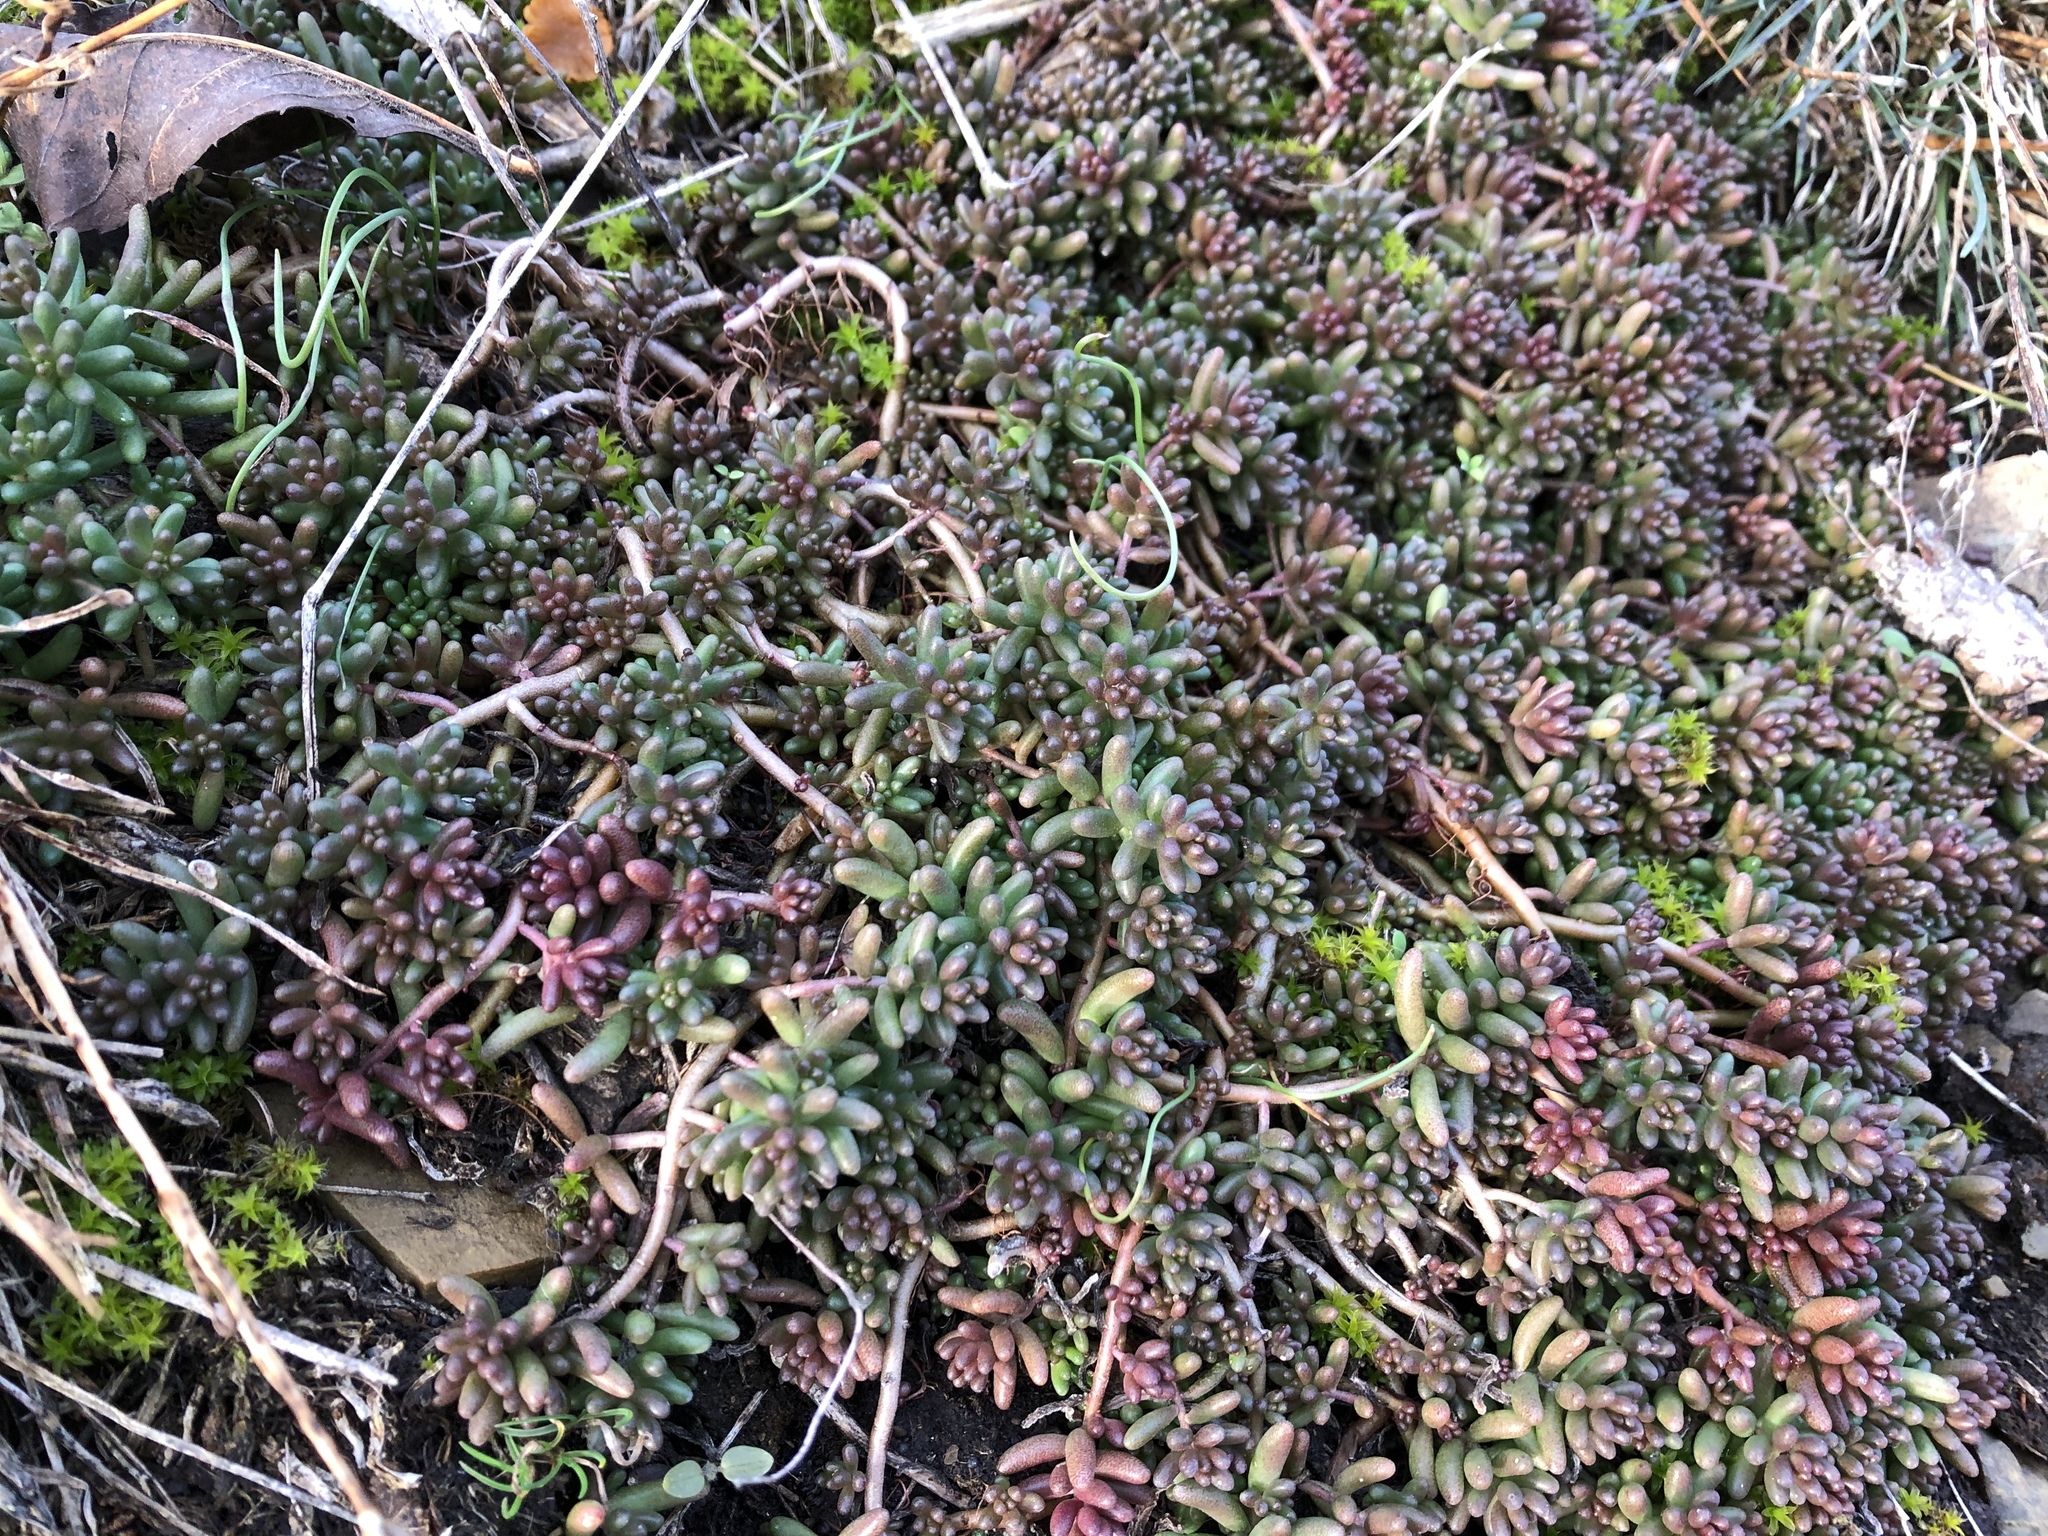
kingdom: Plantae
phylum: Tracheophyta
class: Magnoliopsida
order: Saxifragales
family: Crassulaceae
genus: Sedum
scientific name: Sedum album
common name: White stonecrop
